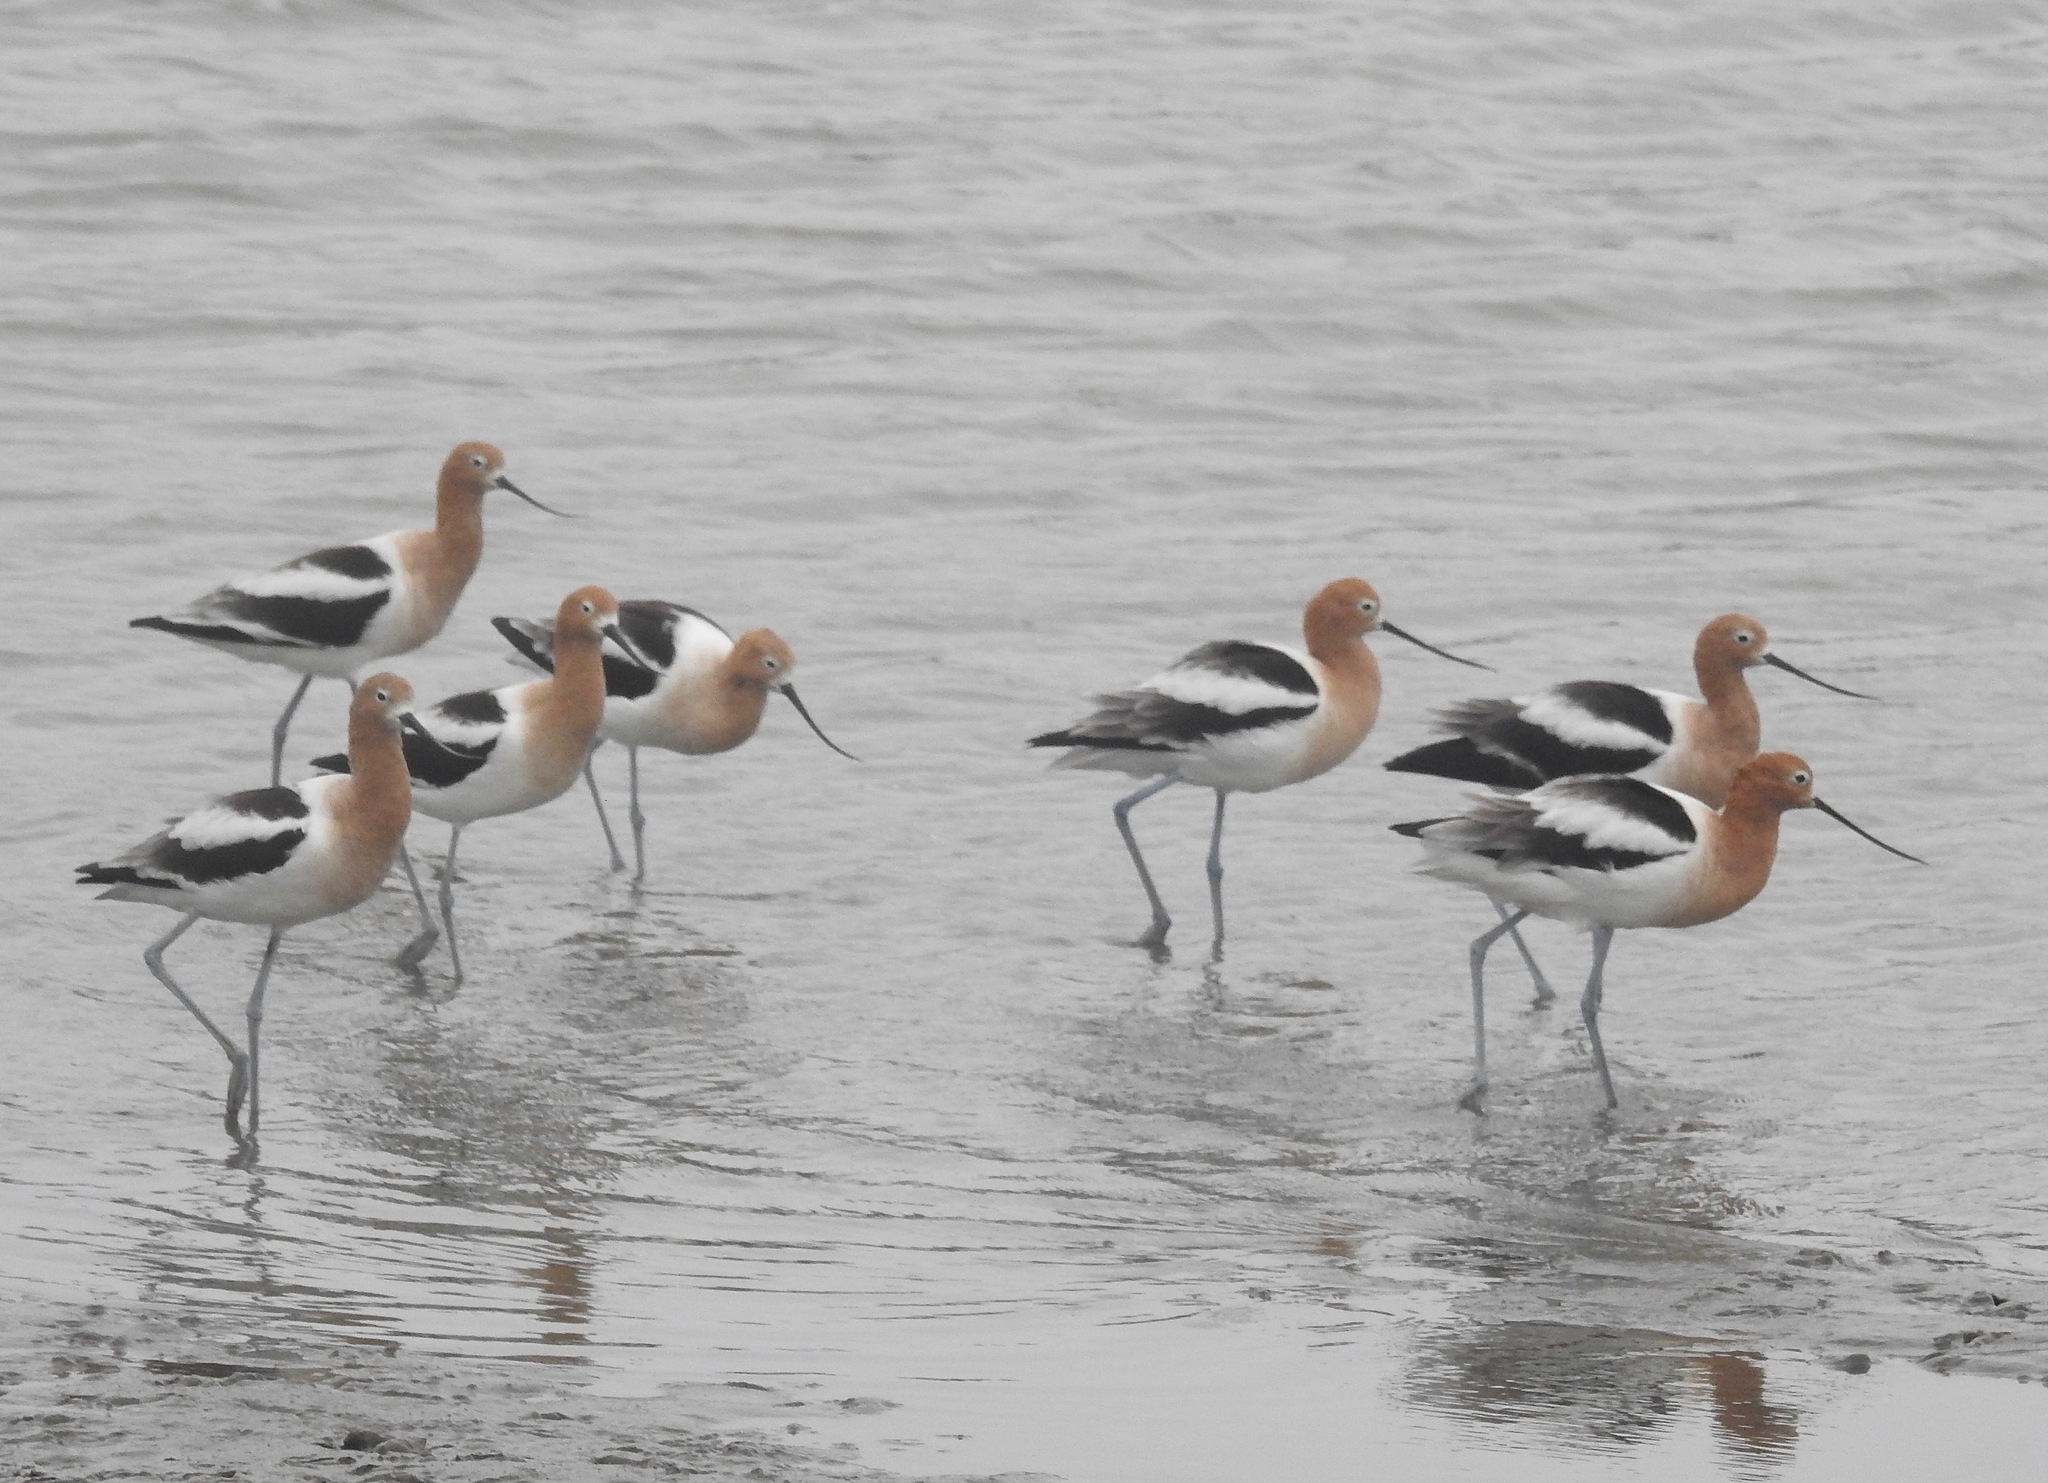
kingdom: Animalia
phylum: Chordata
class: Aves
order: Charadriiformes
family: Recurvirostridae
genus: Recurvirostra
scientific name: Recurvirostra americana
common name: American avocet
